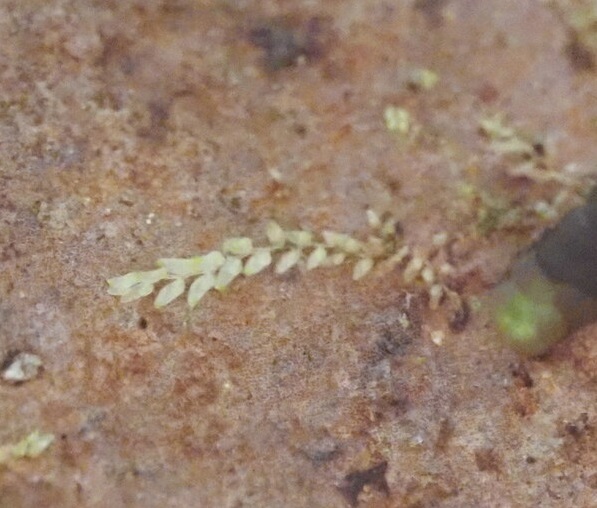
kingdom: Plantae
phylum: Marchantiophyta
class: Jungermanniopsida
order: Porellales
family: Lejeuneaceae
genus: Cololejeunea
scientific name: Cololejeunea hildebrandii
